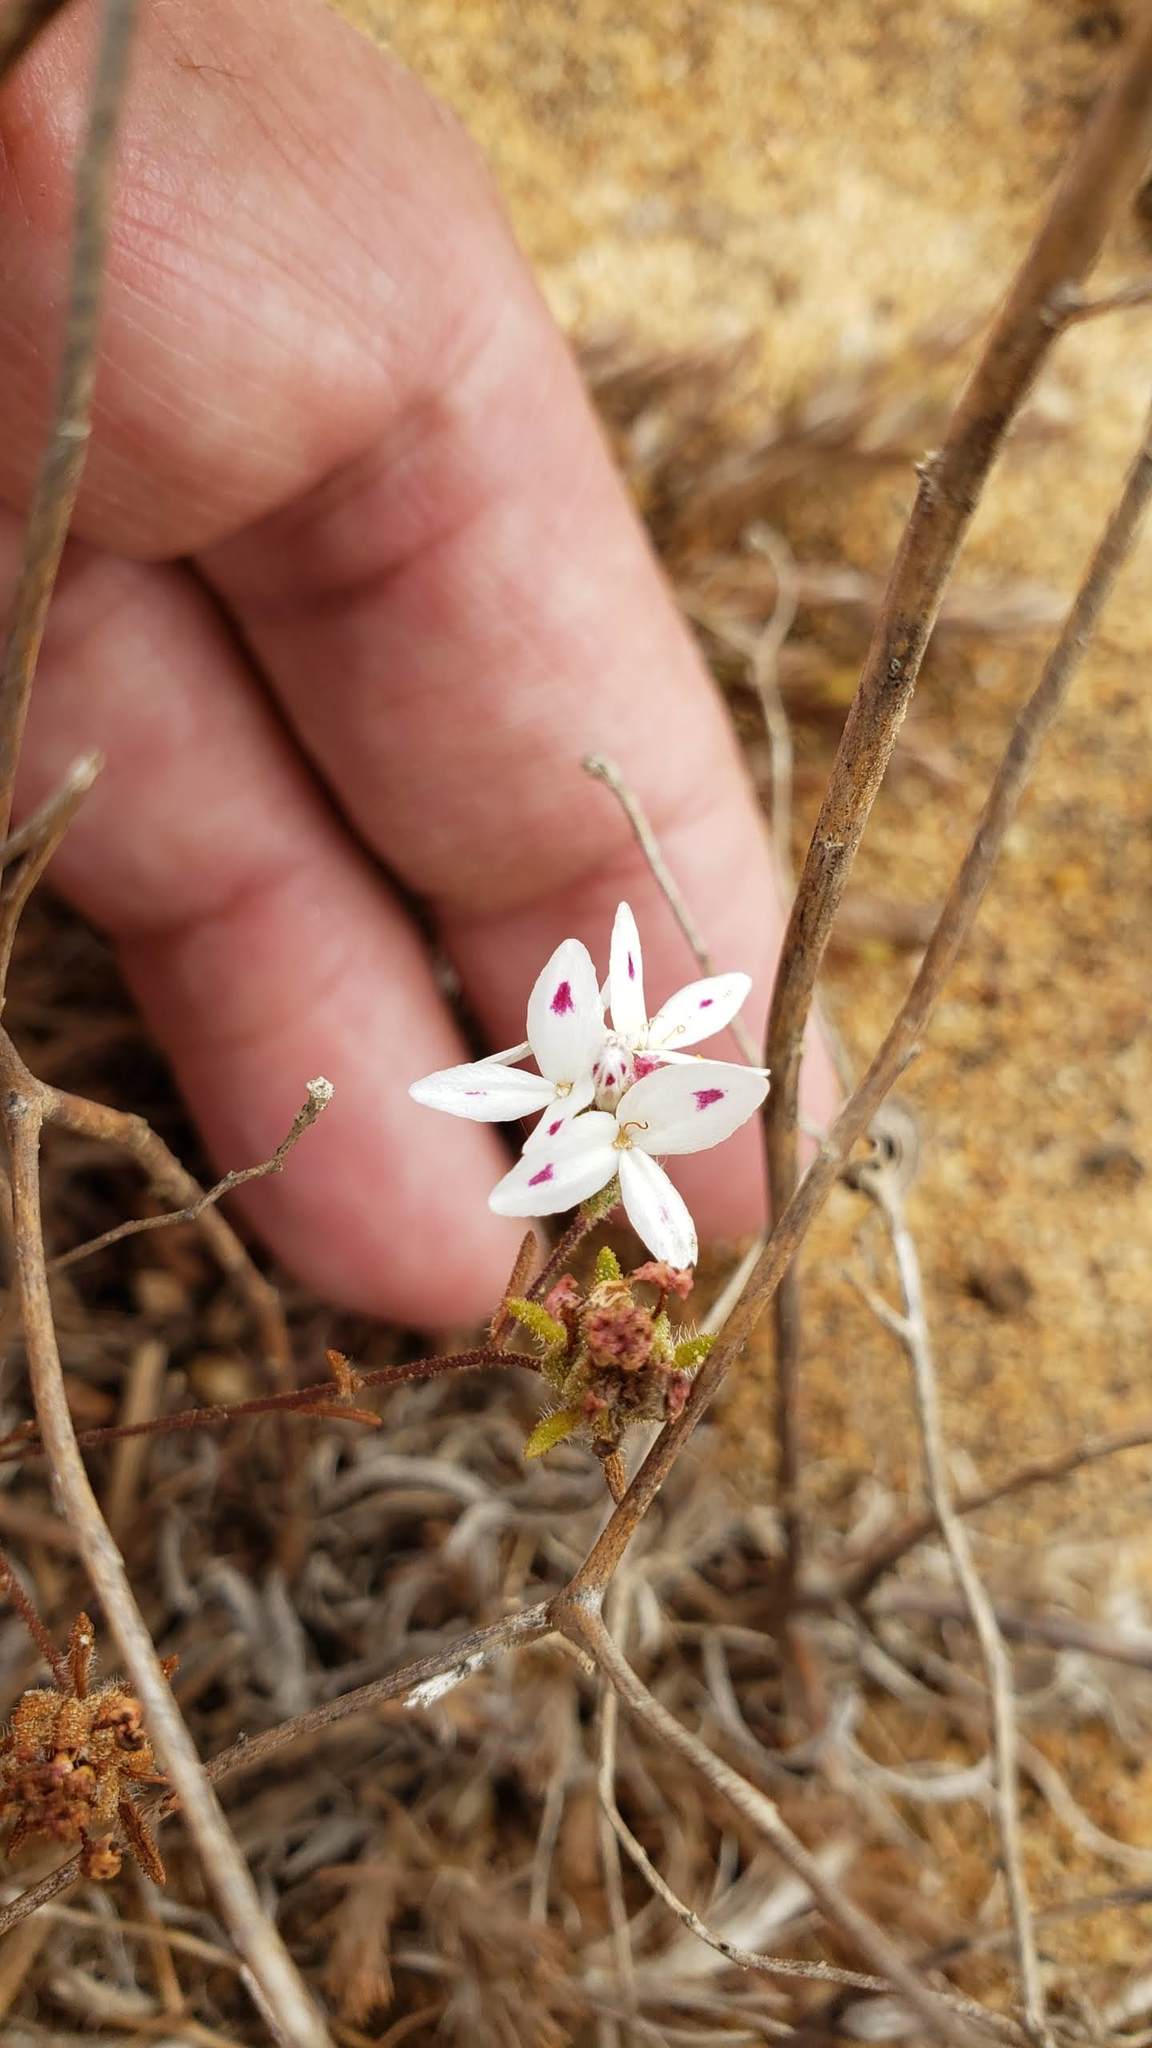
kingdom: Plantae
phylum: Tracheophyta
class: Magnoliopsida
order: Asterales
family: Asteraceae
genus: Osmadenia
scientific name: Osmadenia tenella
